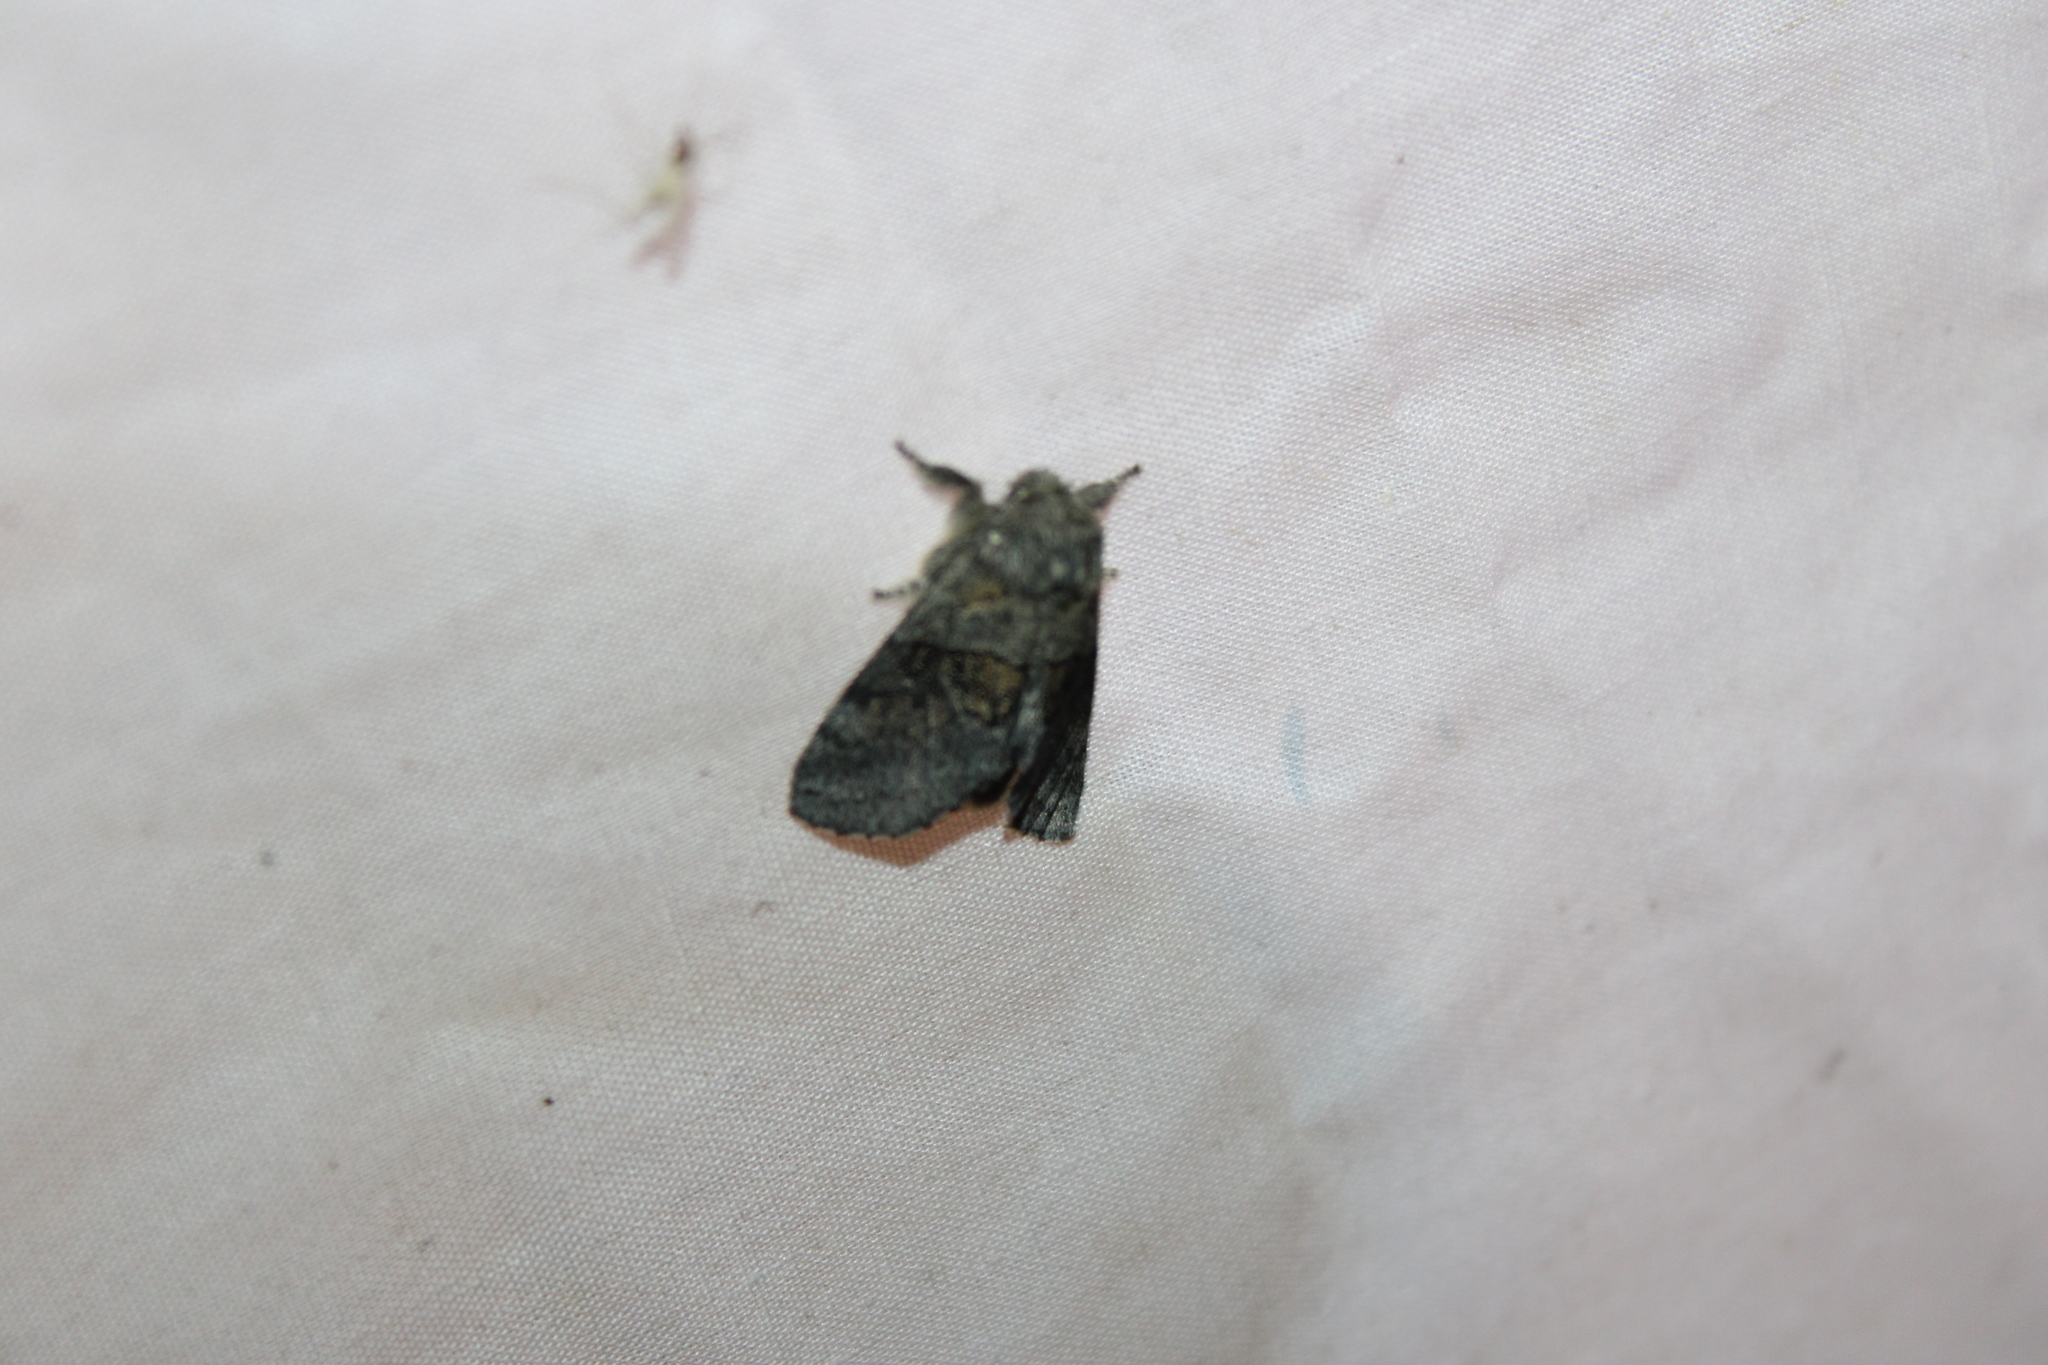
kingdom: Animalia
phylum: Arthropoda
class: Insecta
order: Lepidoptera
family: Notodontidae
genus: Gluphisia
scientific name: Gluphisia septentrionis
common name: Common gluphisia
